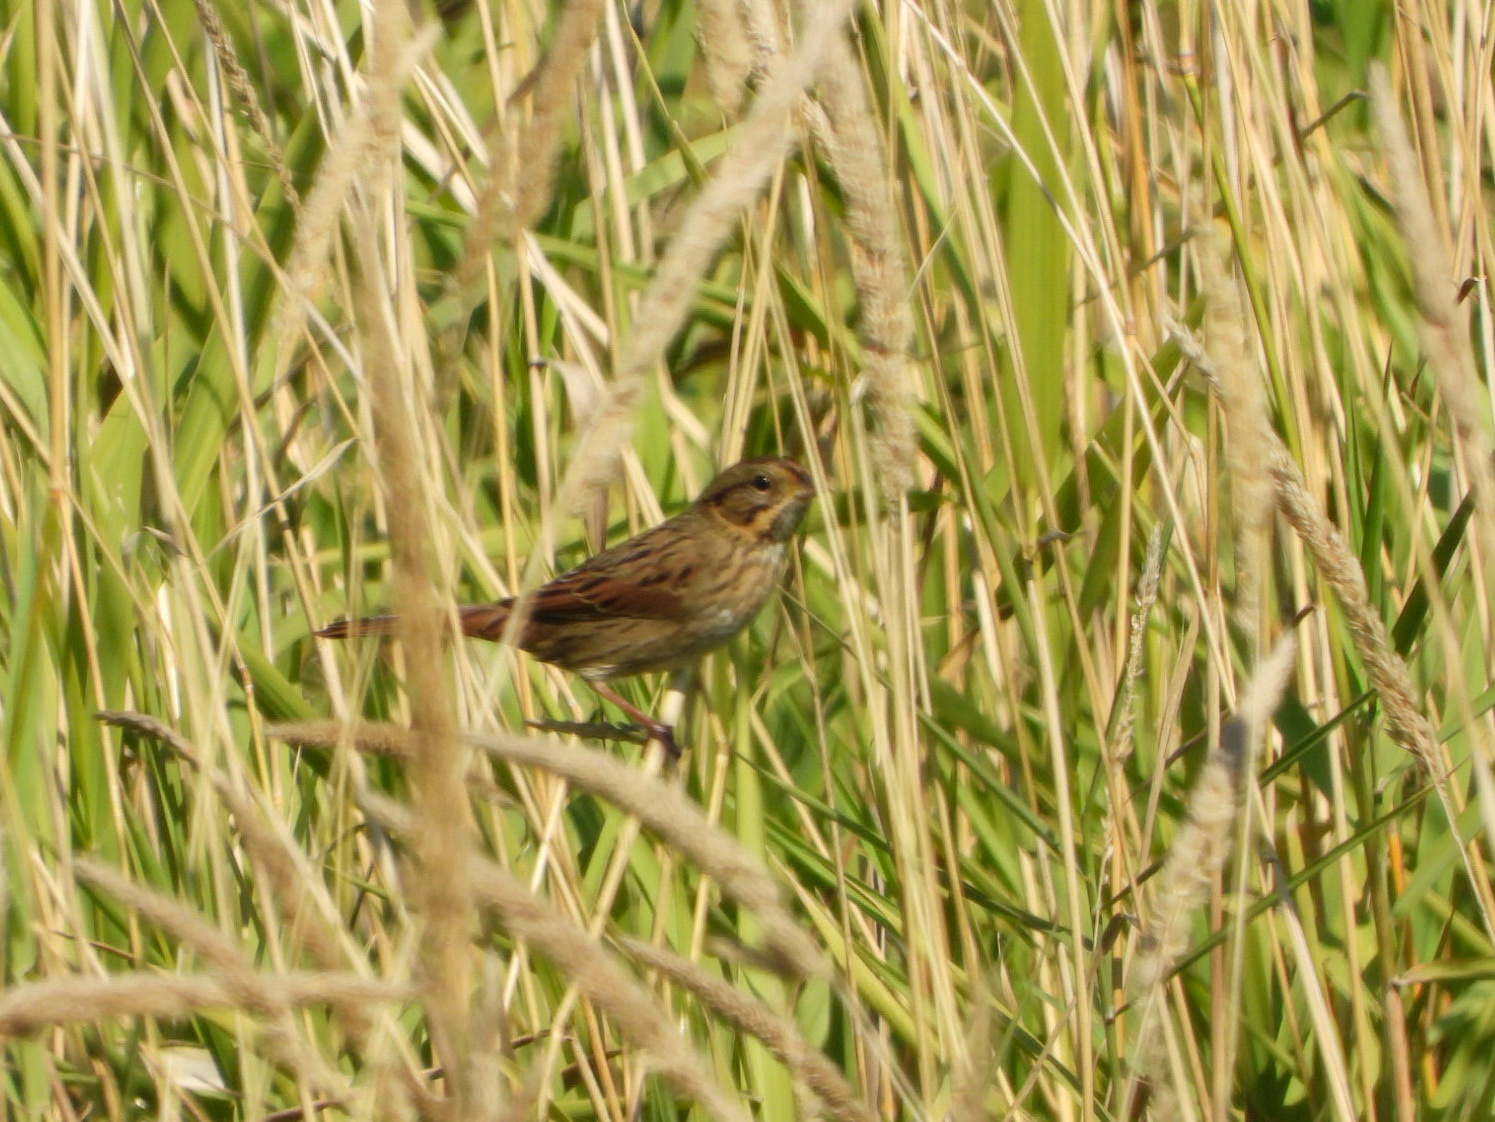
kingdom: Animalia
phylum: Chordata
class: Aves
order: Passeriformes
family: Passerellidae
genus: Melospiza
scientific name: Melospiza lincolnii
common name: Lincoln's sparrow
